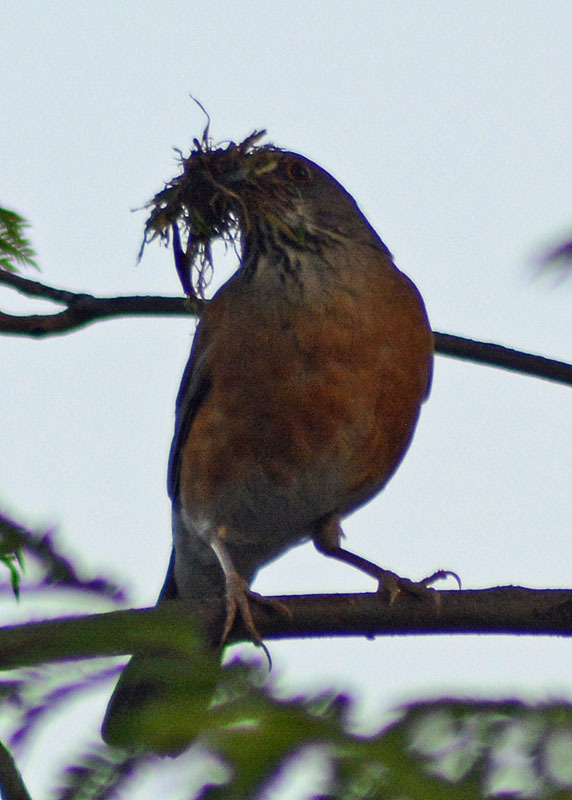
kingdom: Animalia
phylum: Chordata
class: Aves
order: Passeriformes
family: Turdidae
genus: Turdus
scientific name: Turdus rufopalliatus
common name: Rufous-backed robin
